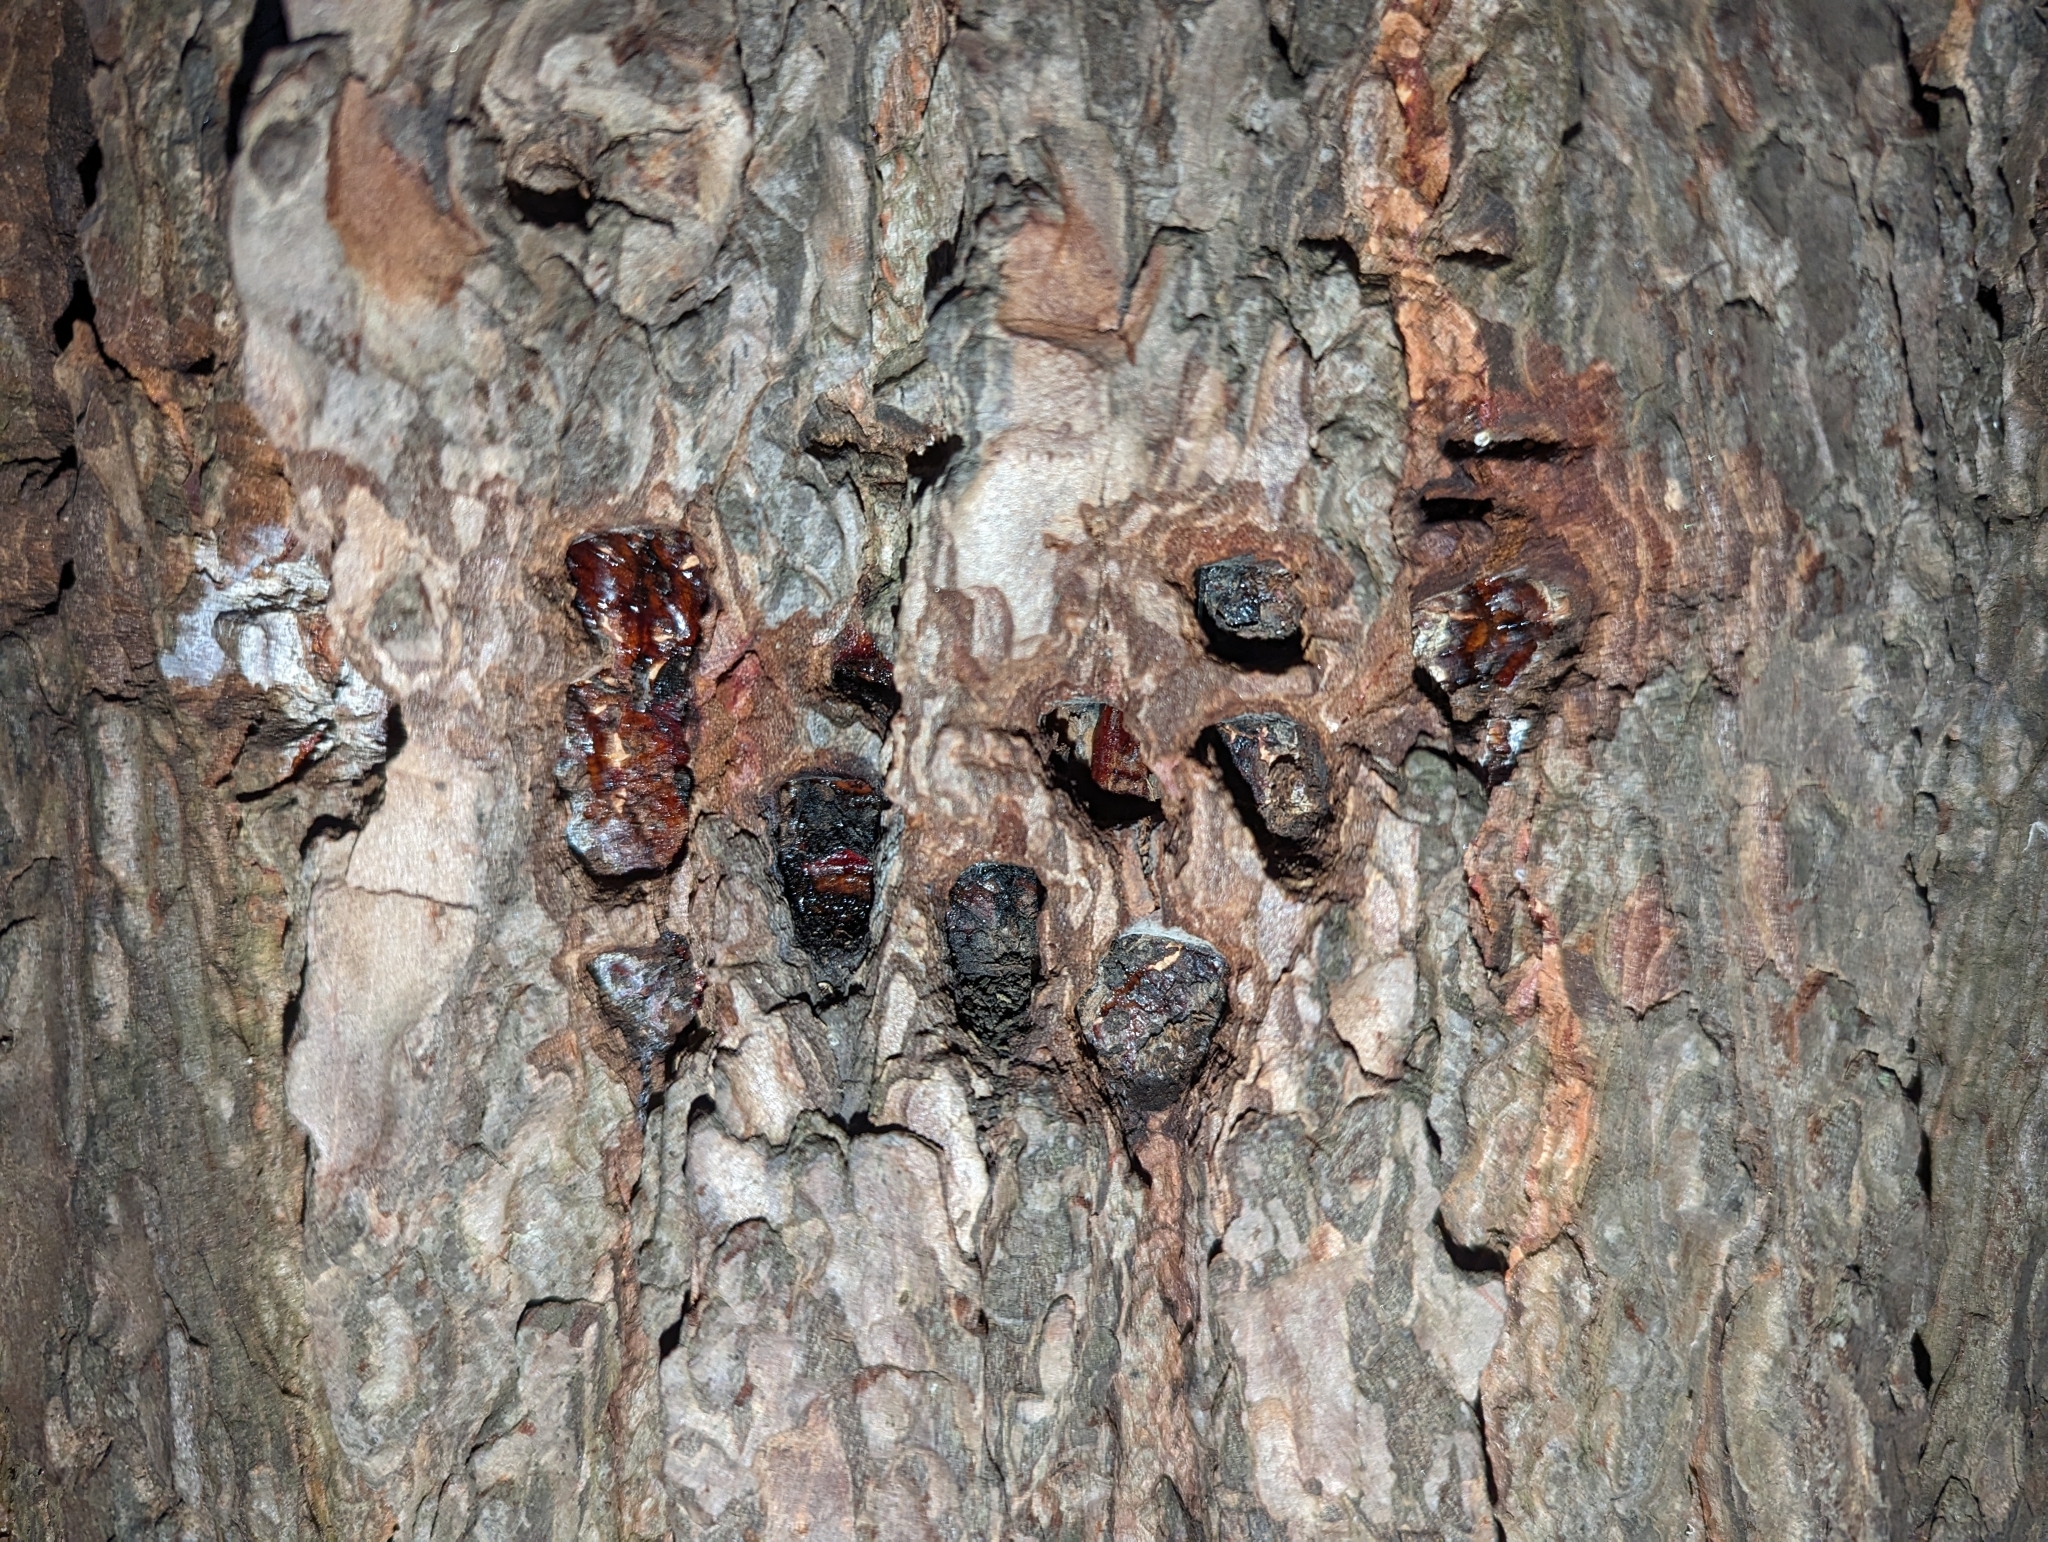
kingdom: Plantae
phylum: Tracheophyta
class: Pinopsida
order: Pinales
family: Pinaceae
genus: Tsuga
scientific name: Tsuga canadensis
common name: Eastern hemlock
